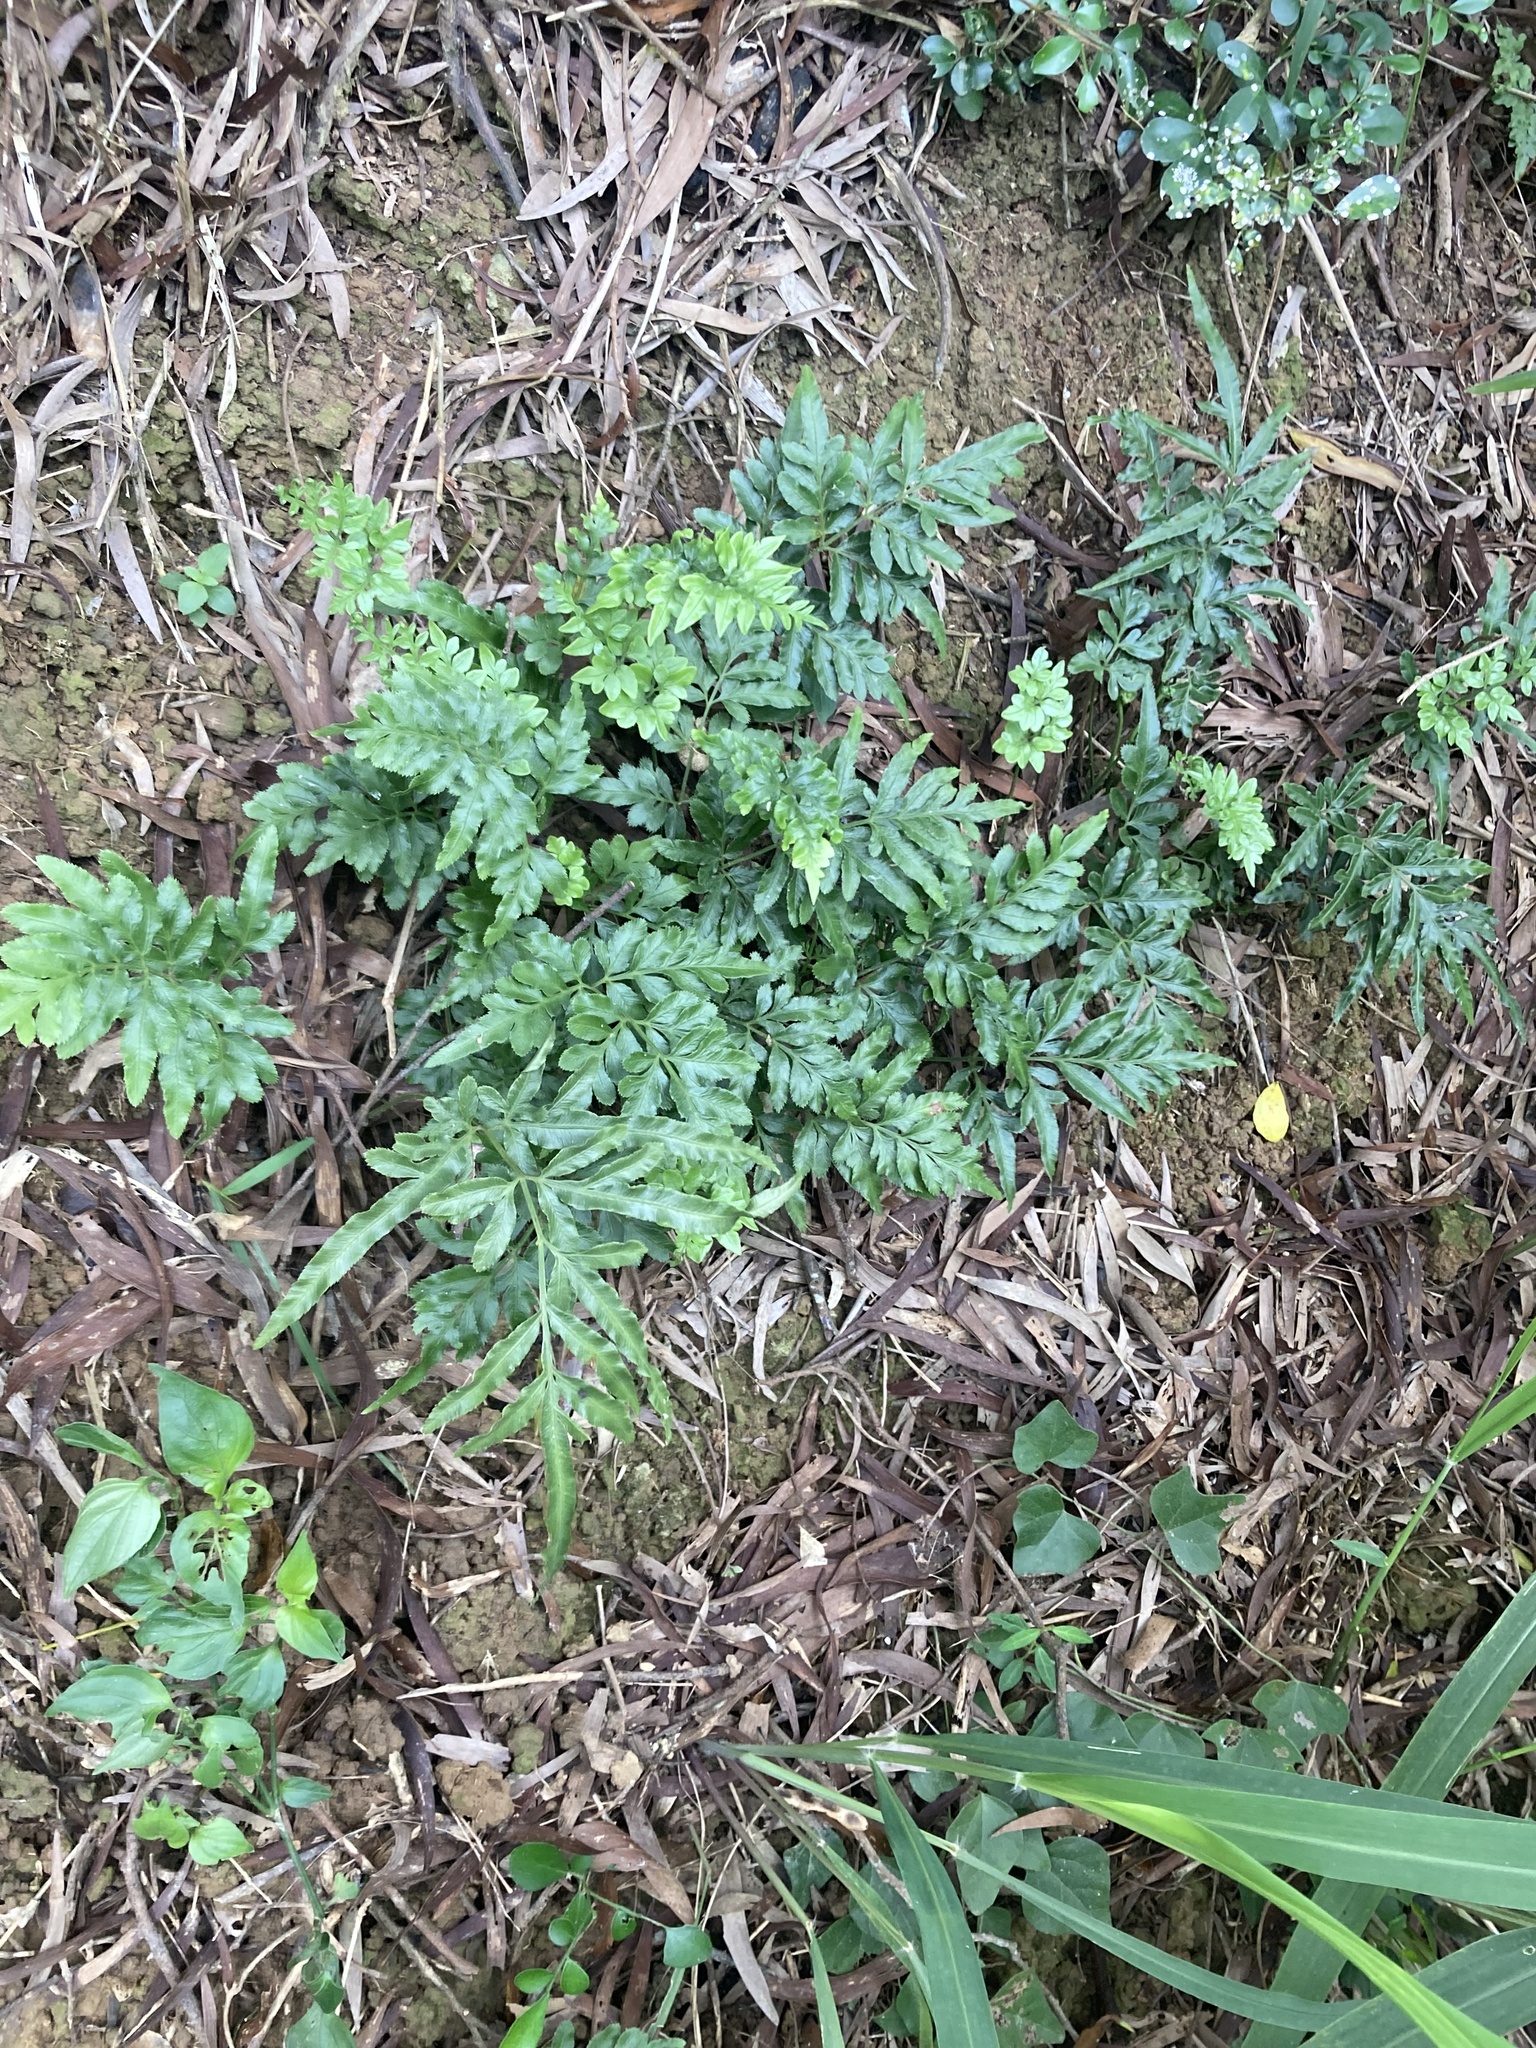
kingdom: Plantae
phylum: Tracheophyta
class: Polypodiopsida
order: Polypodiales
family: Pteridaceae
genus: Pteris
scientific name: Pteris ensiformis
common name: Sword brake
